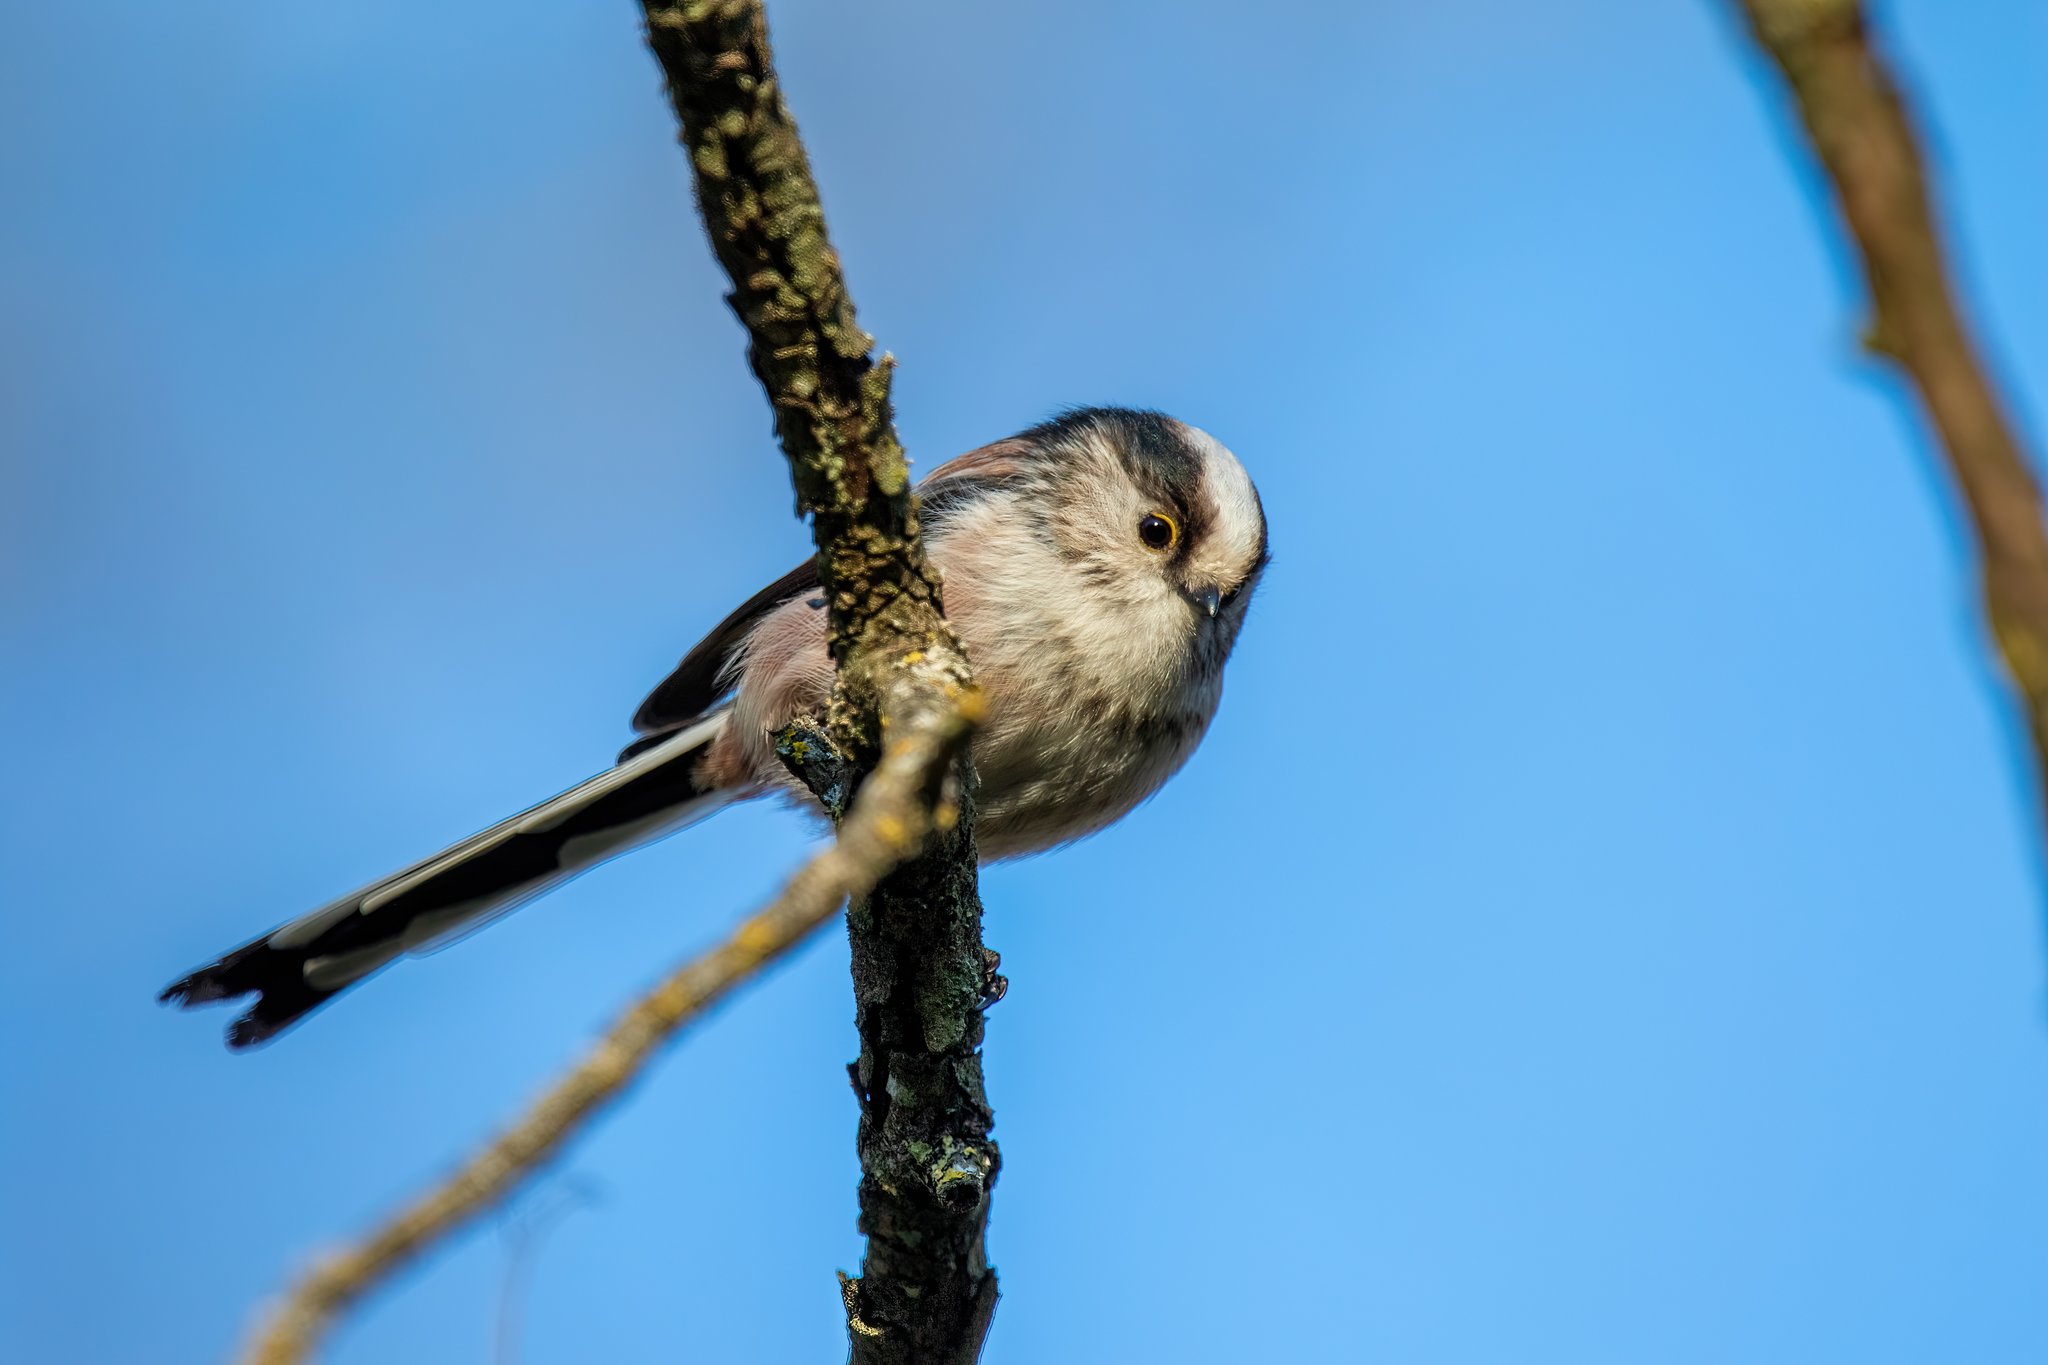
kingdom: Animalia
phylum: Chordata
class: Aves
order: Passeriformes
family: Aegithalidae
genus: Aegithalos
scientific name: Aegithalos caudatus
